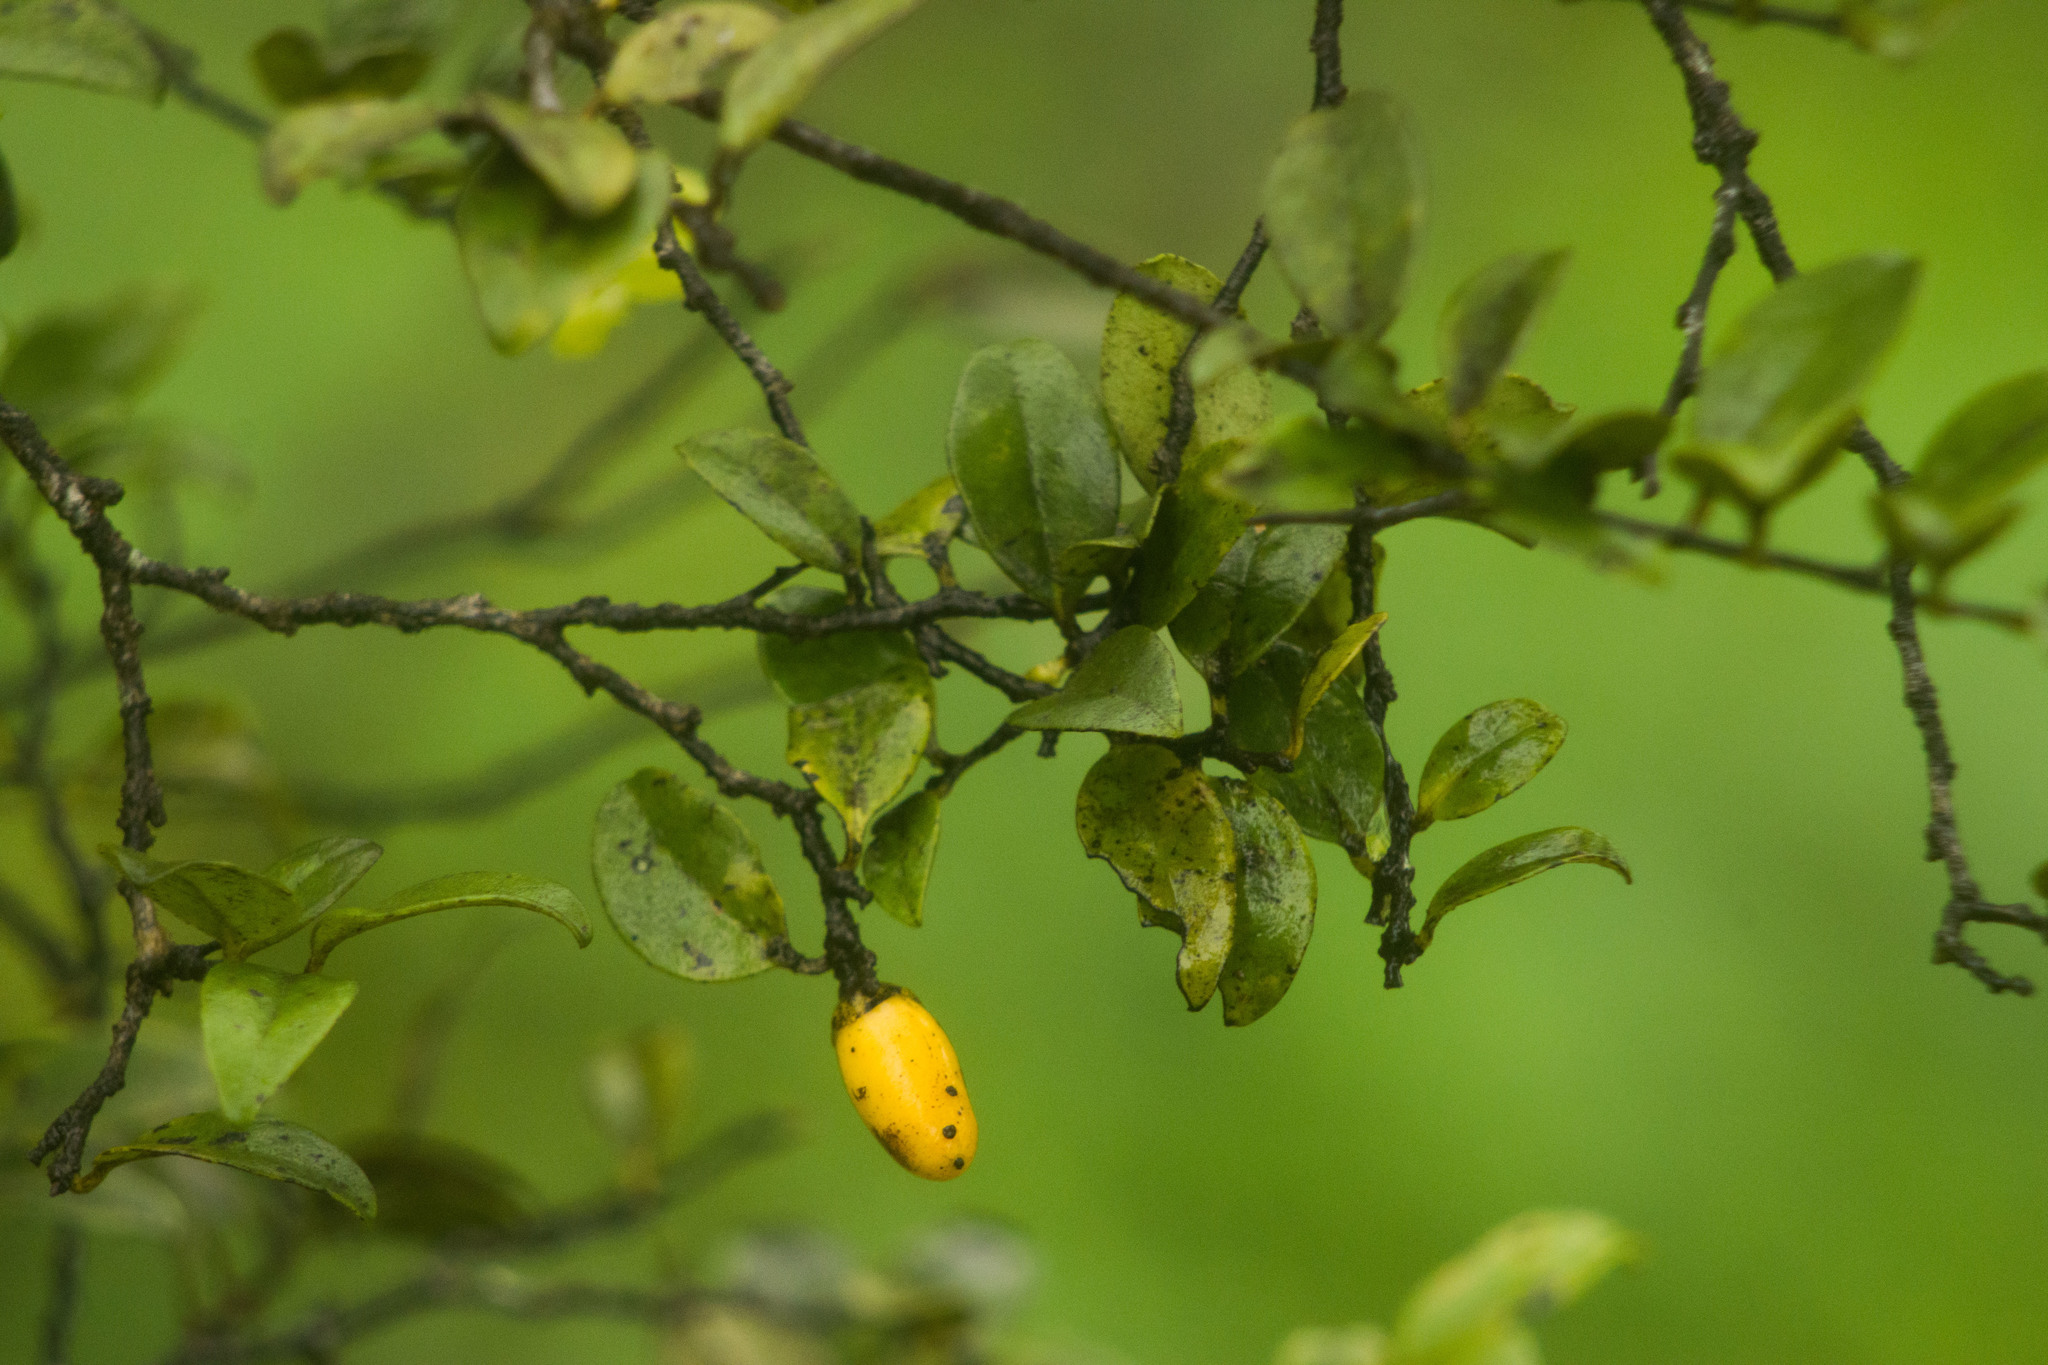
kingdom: Plantae
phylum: Tracheophyta
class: Magnoliopsida
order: Ericales
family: Ebenaceae
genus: Diospyros
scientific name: Diospyros sandwicensis
